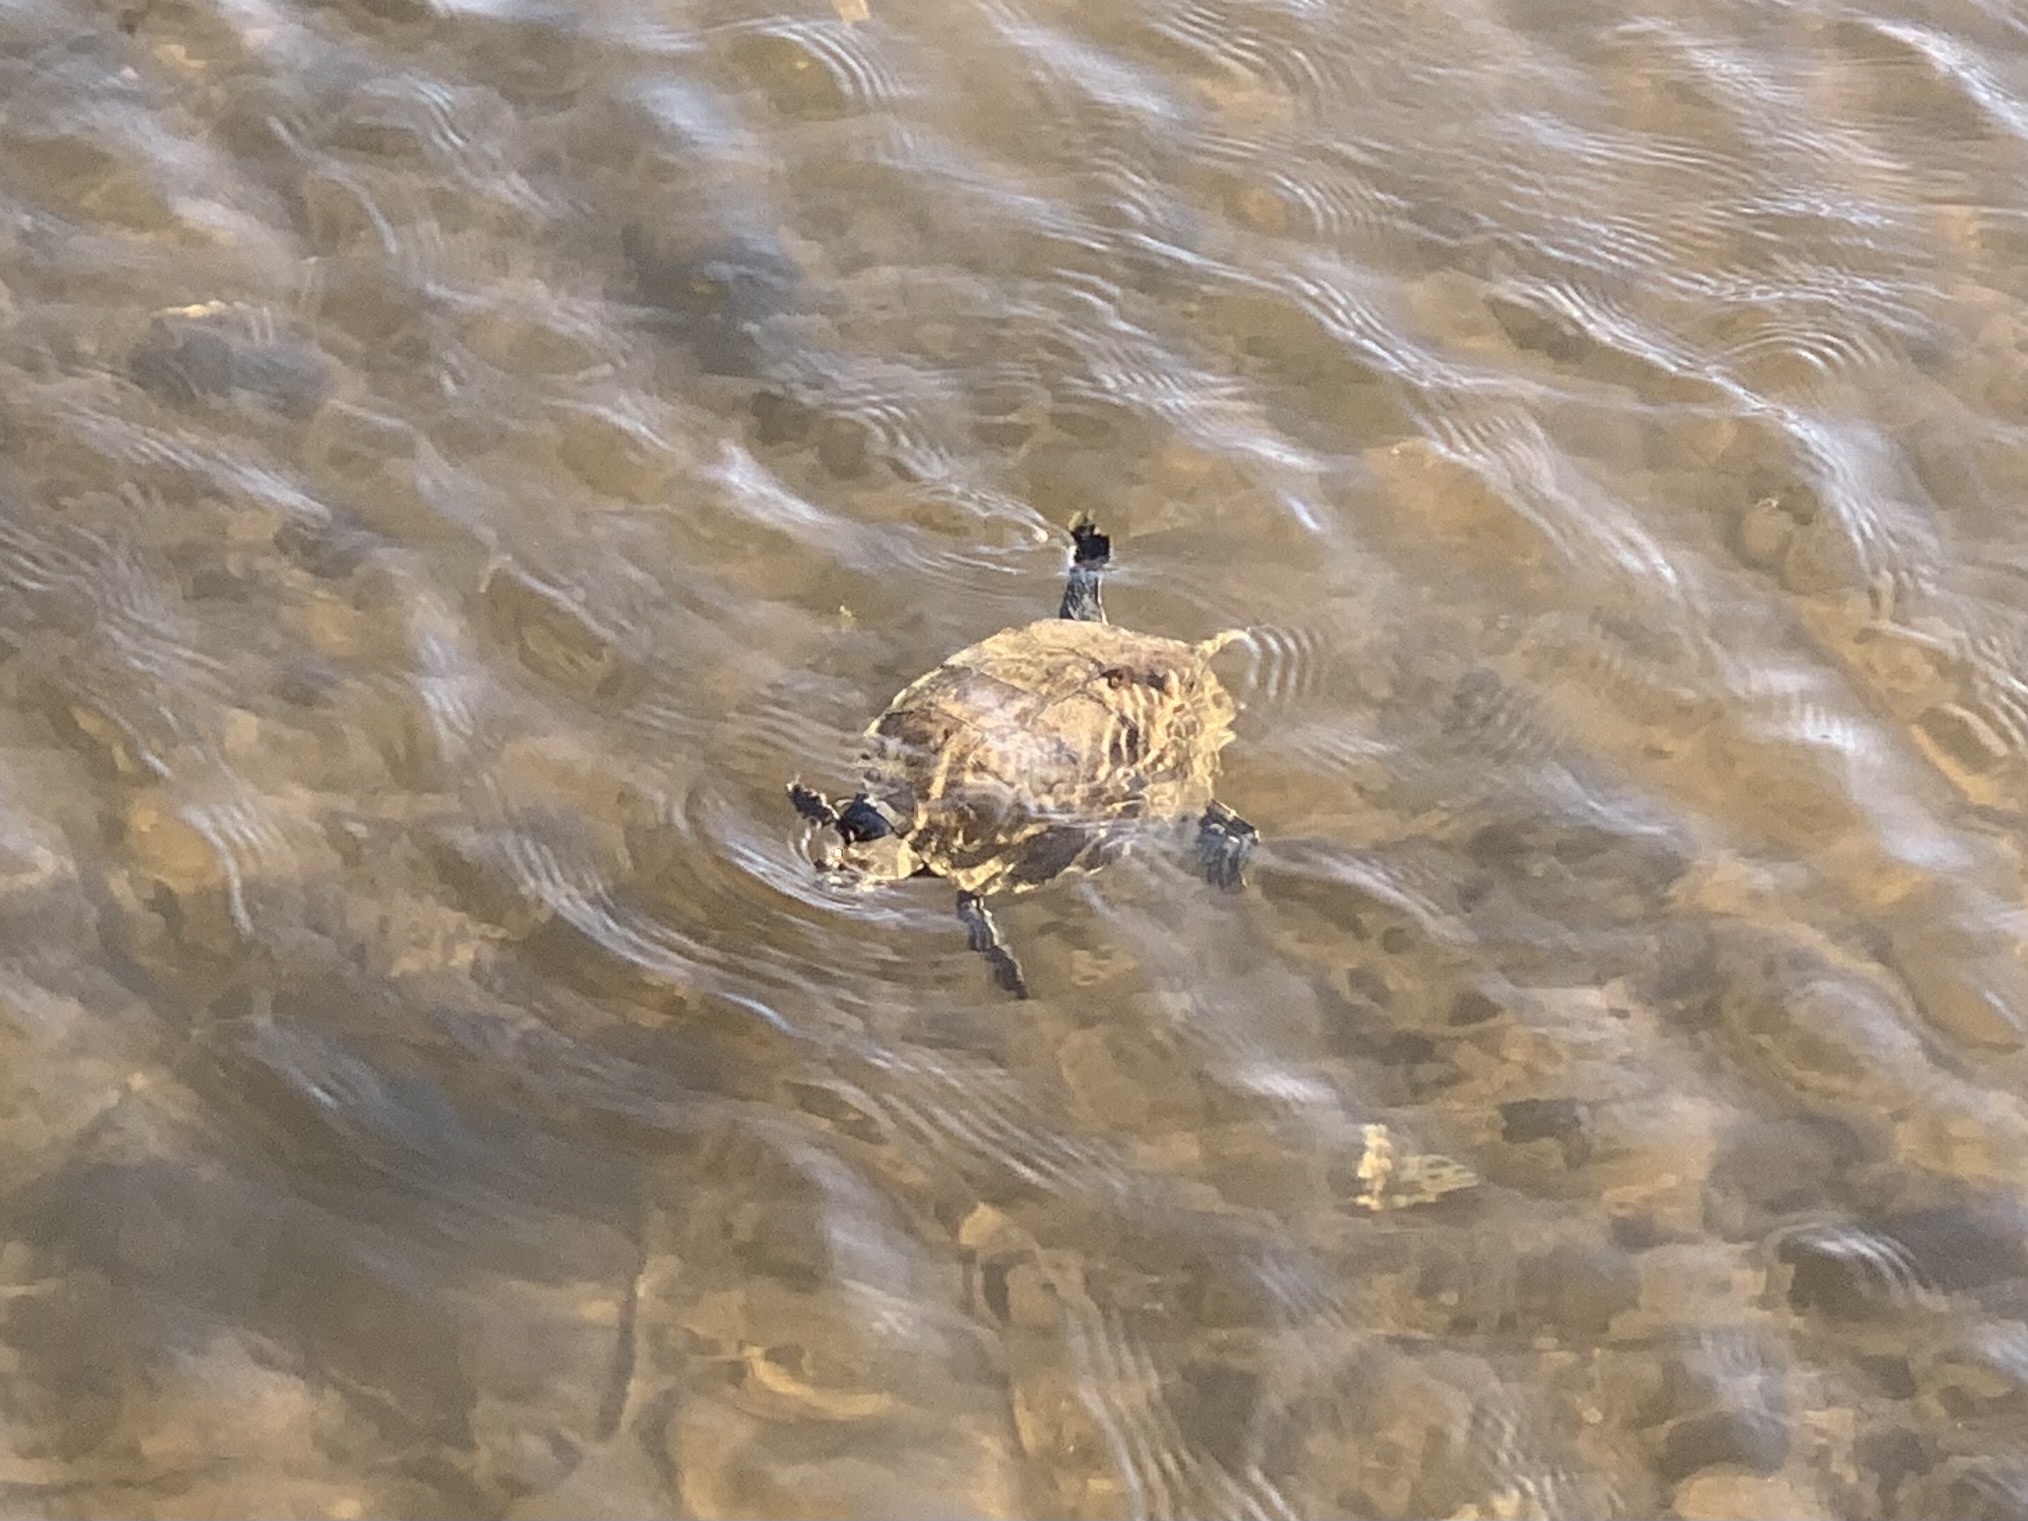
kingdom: Animalia
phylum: Chordata
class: Testudines
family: Geoemydidae
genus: Mauremys
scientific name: Mauremys rivulata
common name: Western caspian turtle
